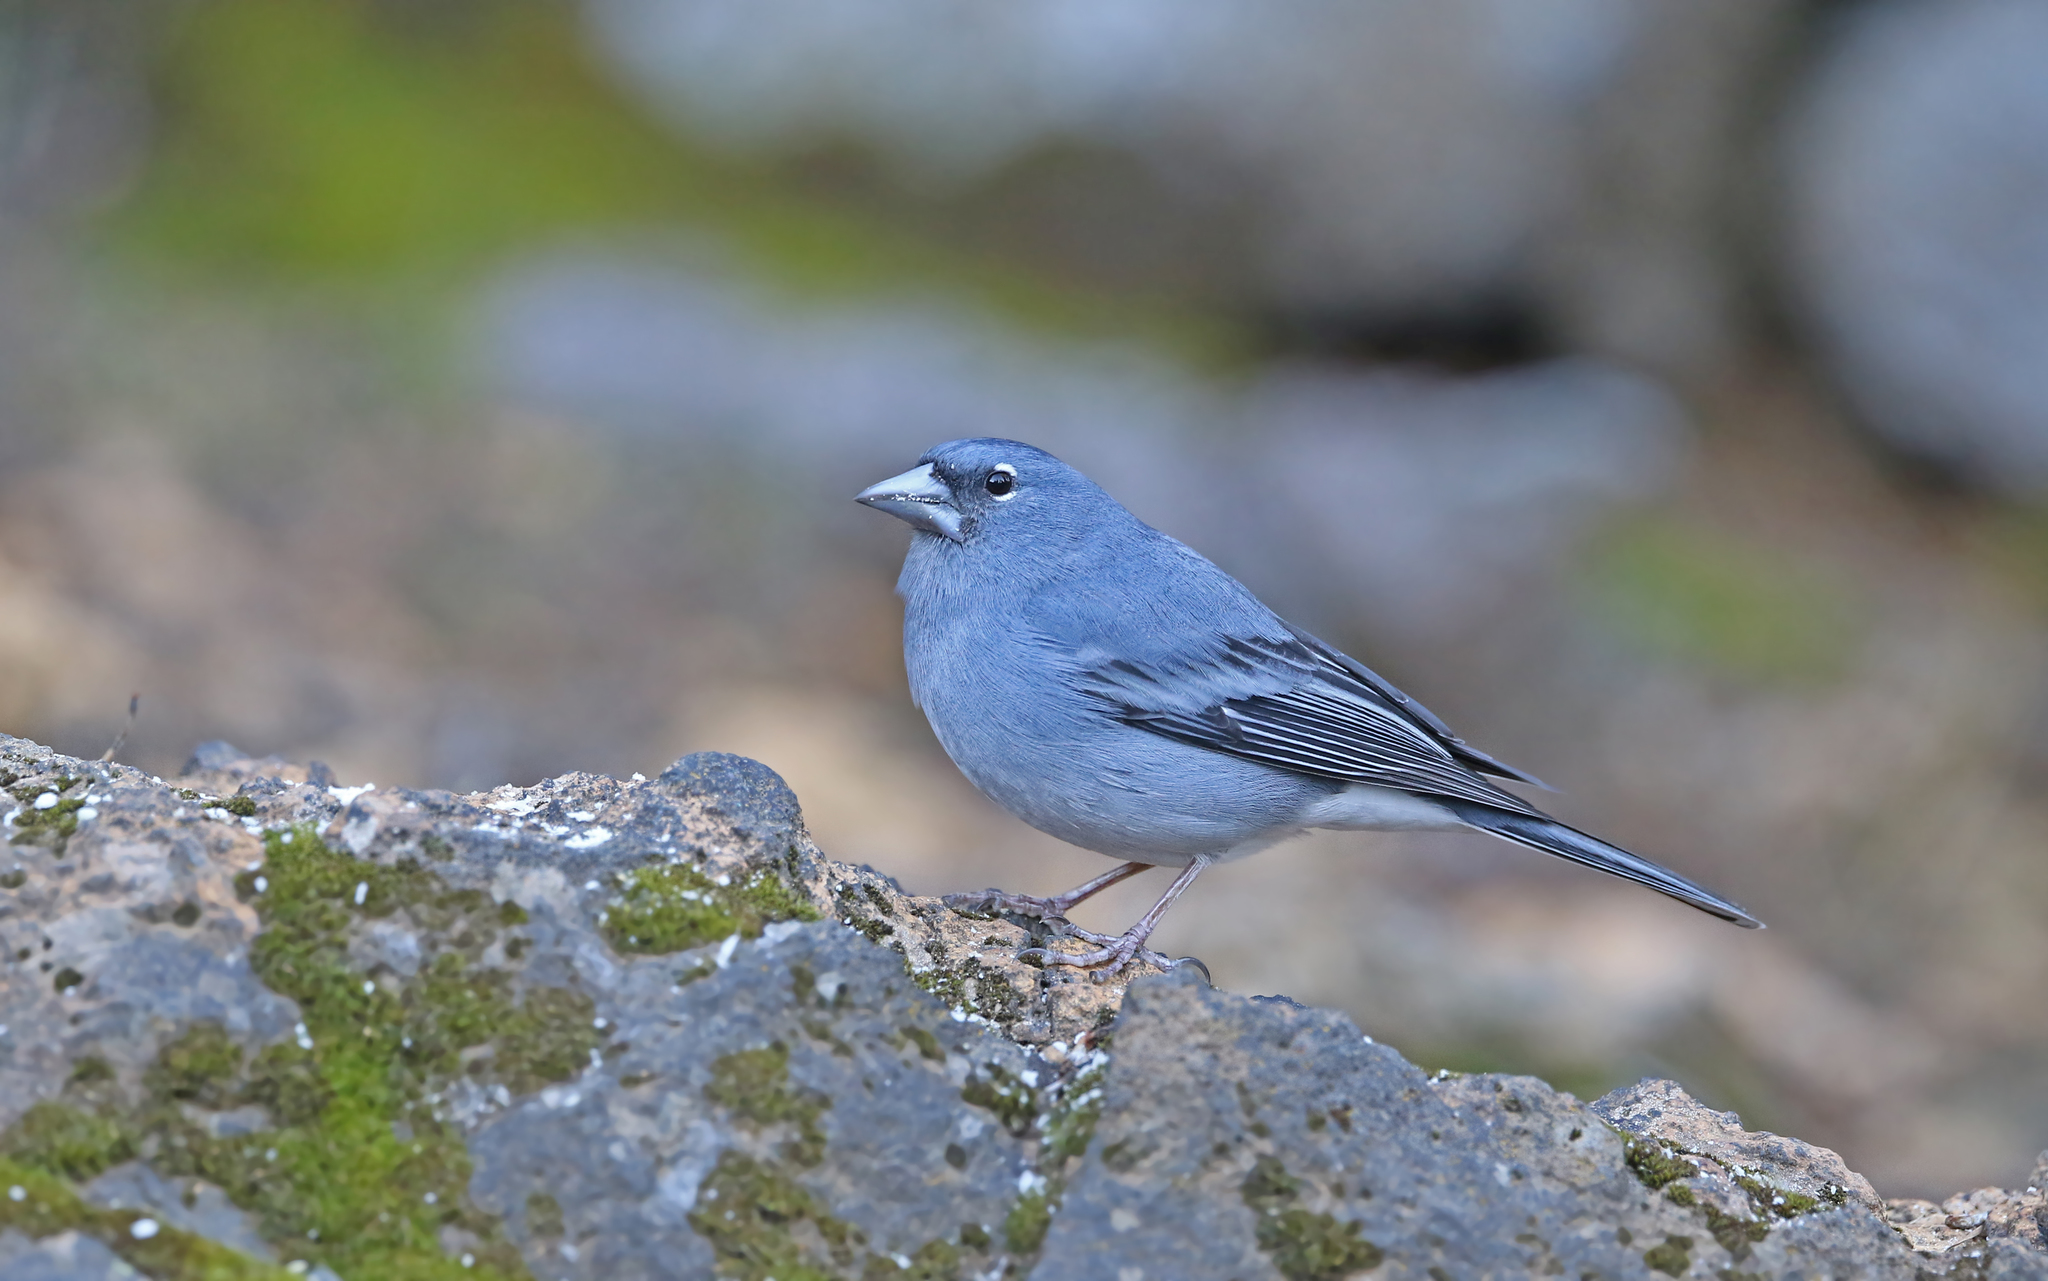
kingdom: Animalia
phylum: Chordata
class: Aves
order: Passeriformes
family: Fringillidae
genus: Fringilla
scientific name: Fringilla teydea
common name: Blue chaffinch
